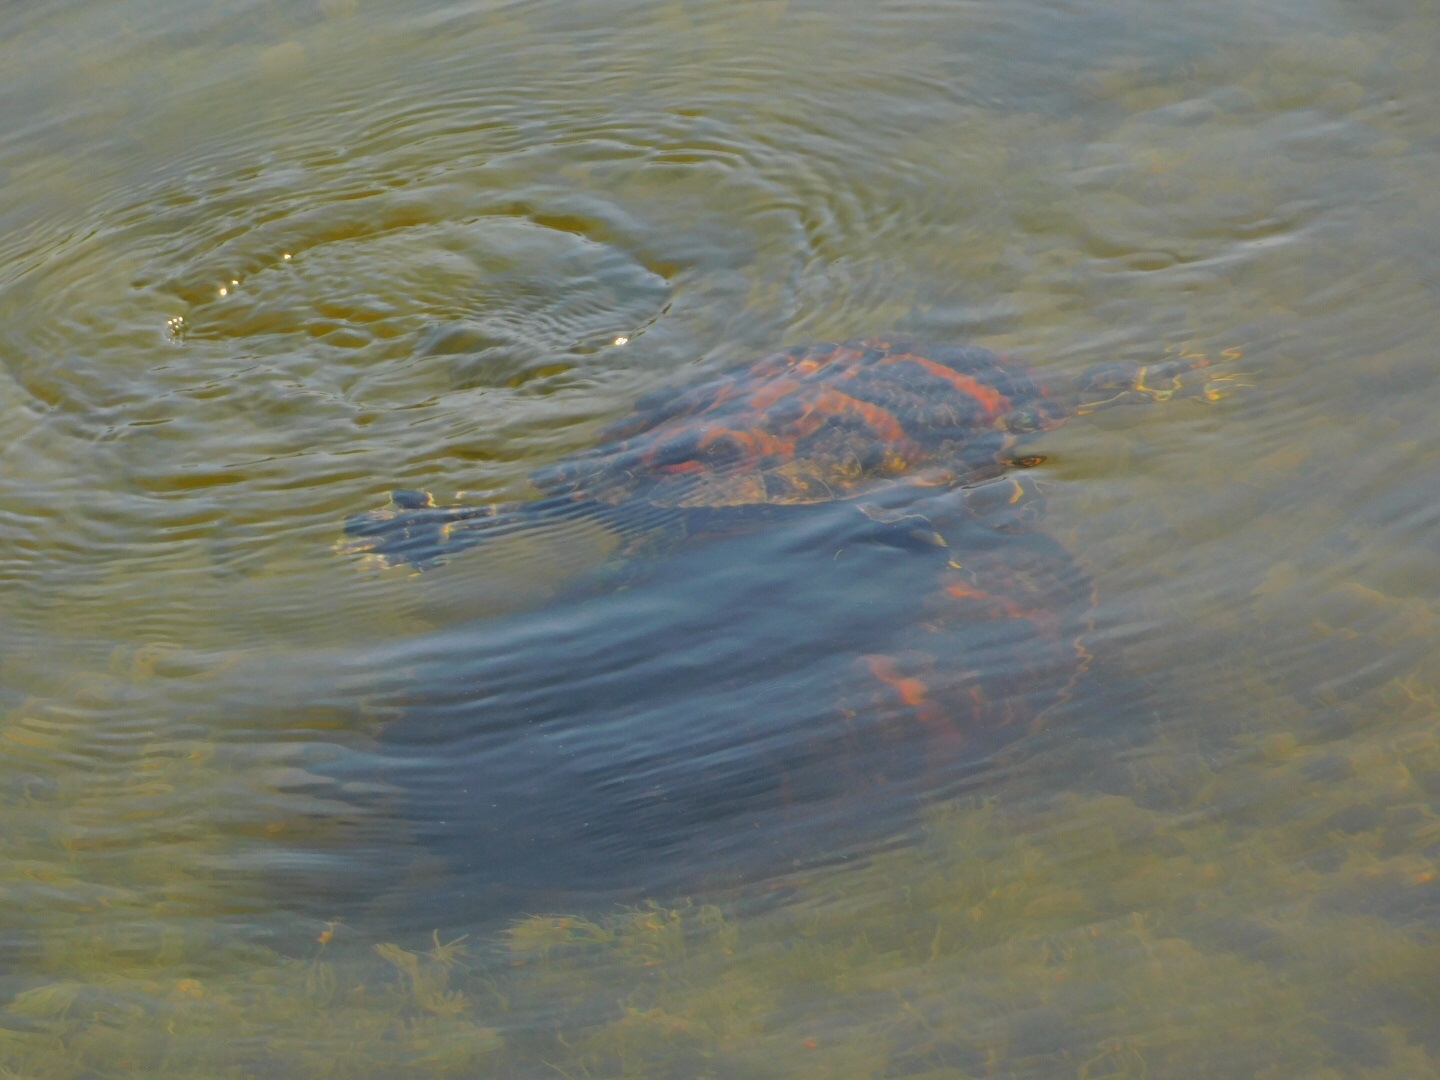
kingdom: Animalia
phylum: Chordata
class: Testudines
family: Emydidae
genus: Pseudemys
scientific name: Pseudemys nelsoni
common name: Florida red-bellied turtle
